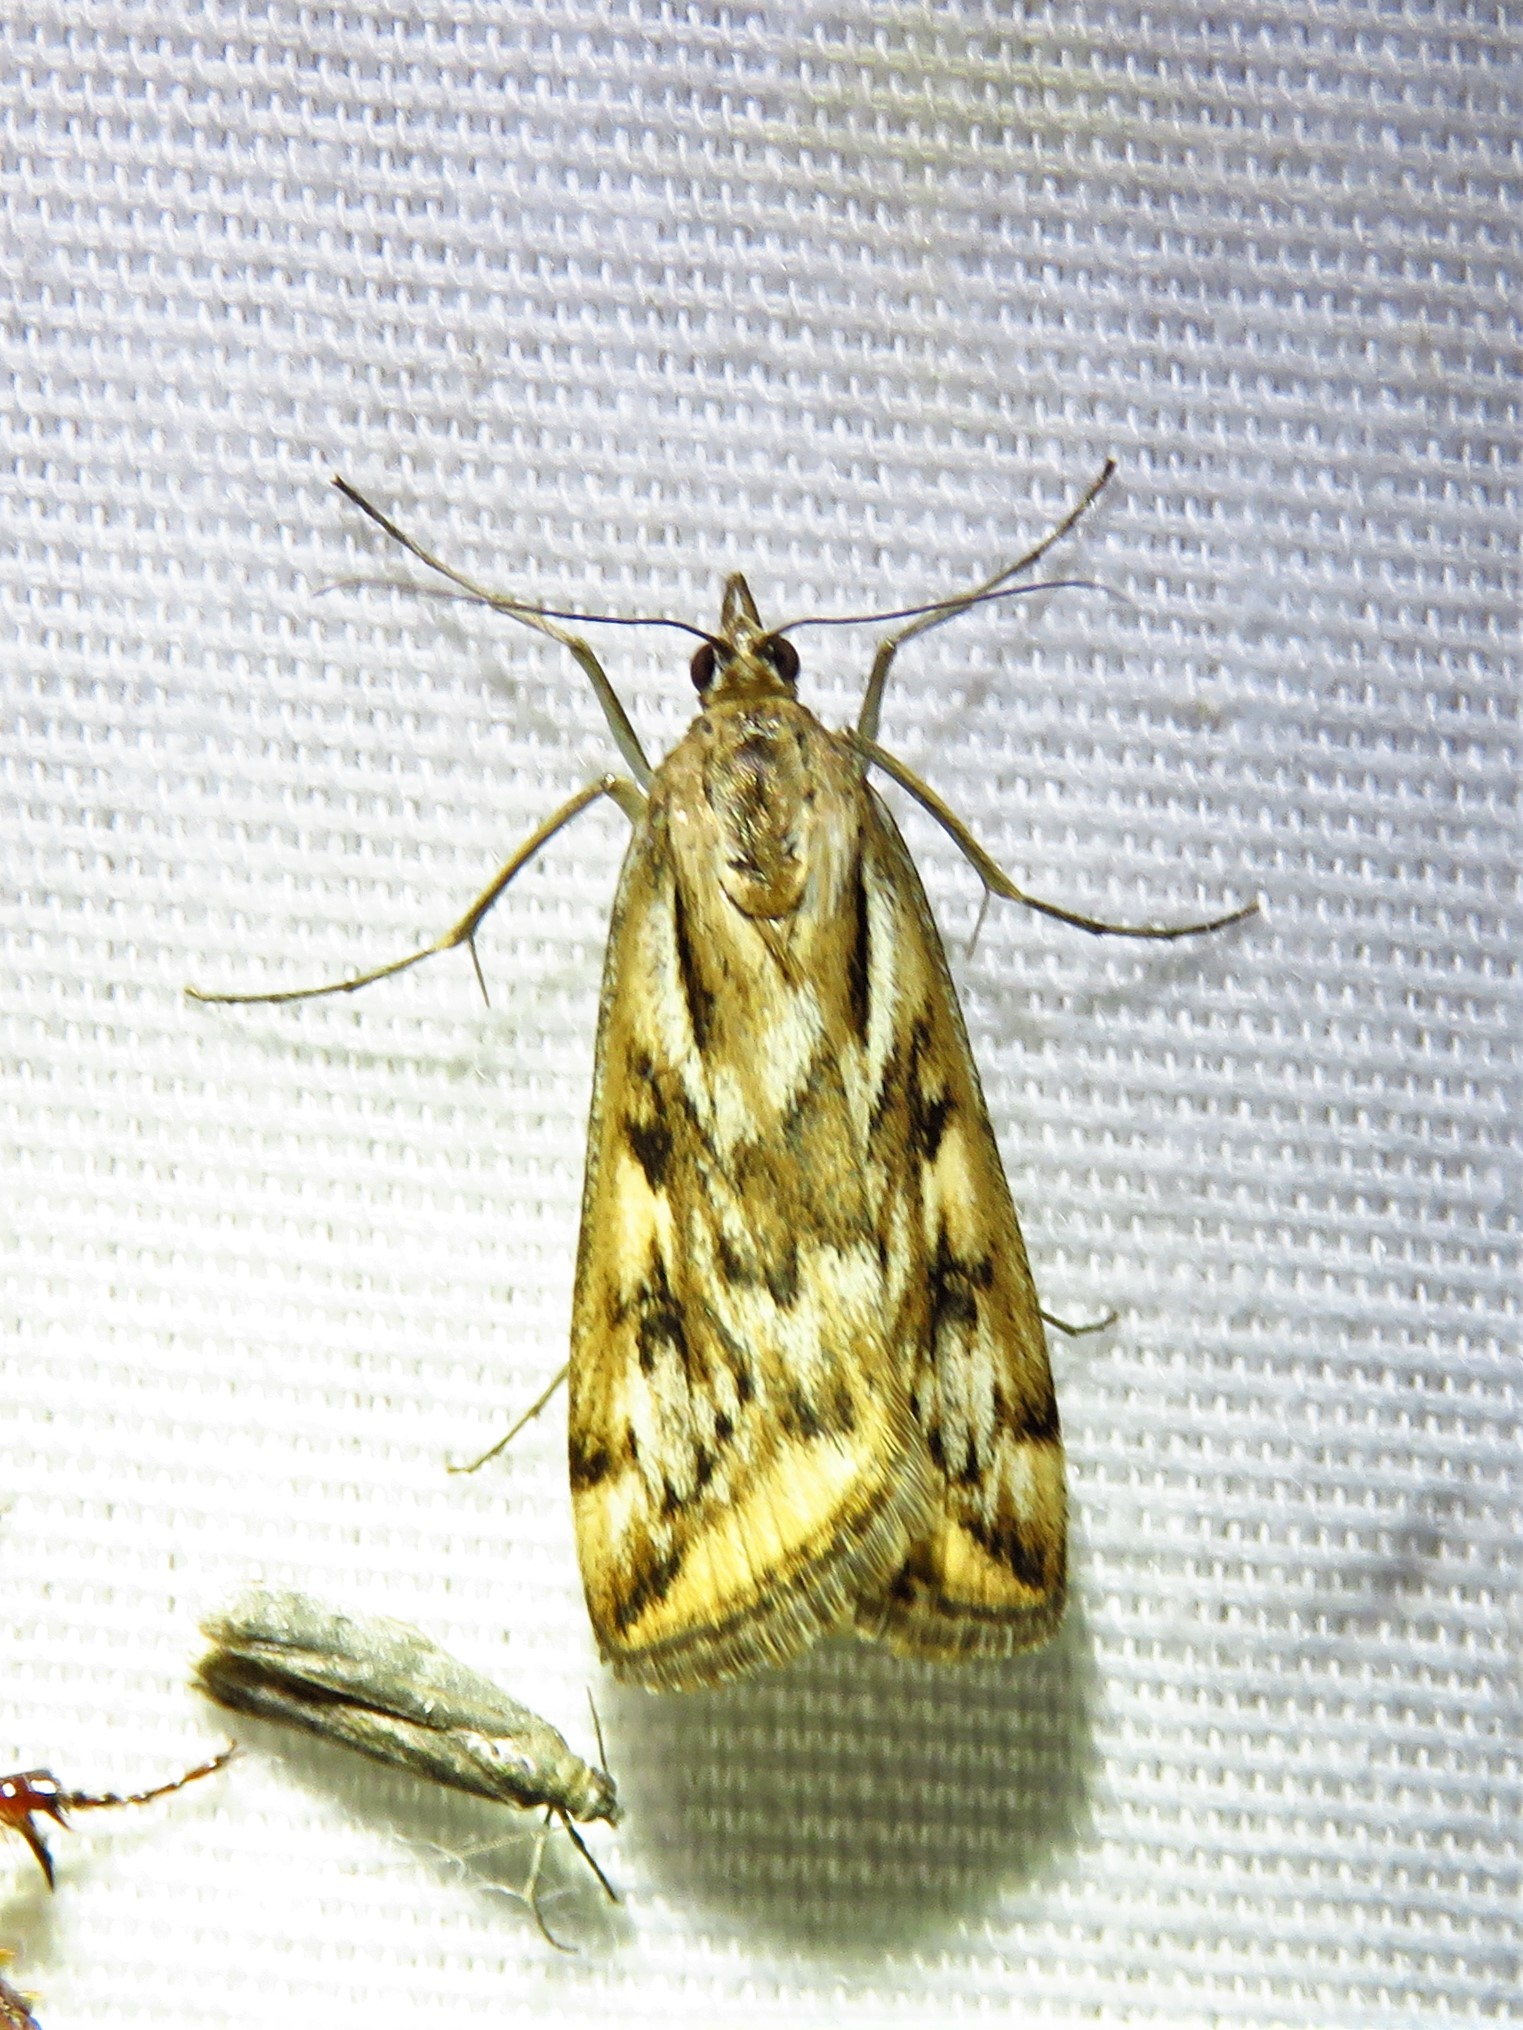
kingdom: Animalia
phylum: Arthropoda
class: Insecta
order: Lepidoptera
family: Crambidae
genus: Loxostege
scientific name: Loxostege cereralis
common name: Alfalfa webworm moth
